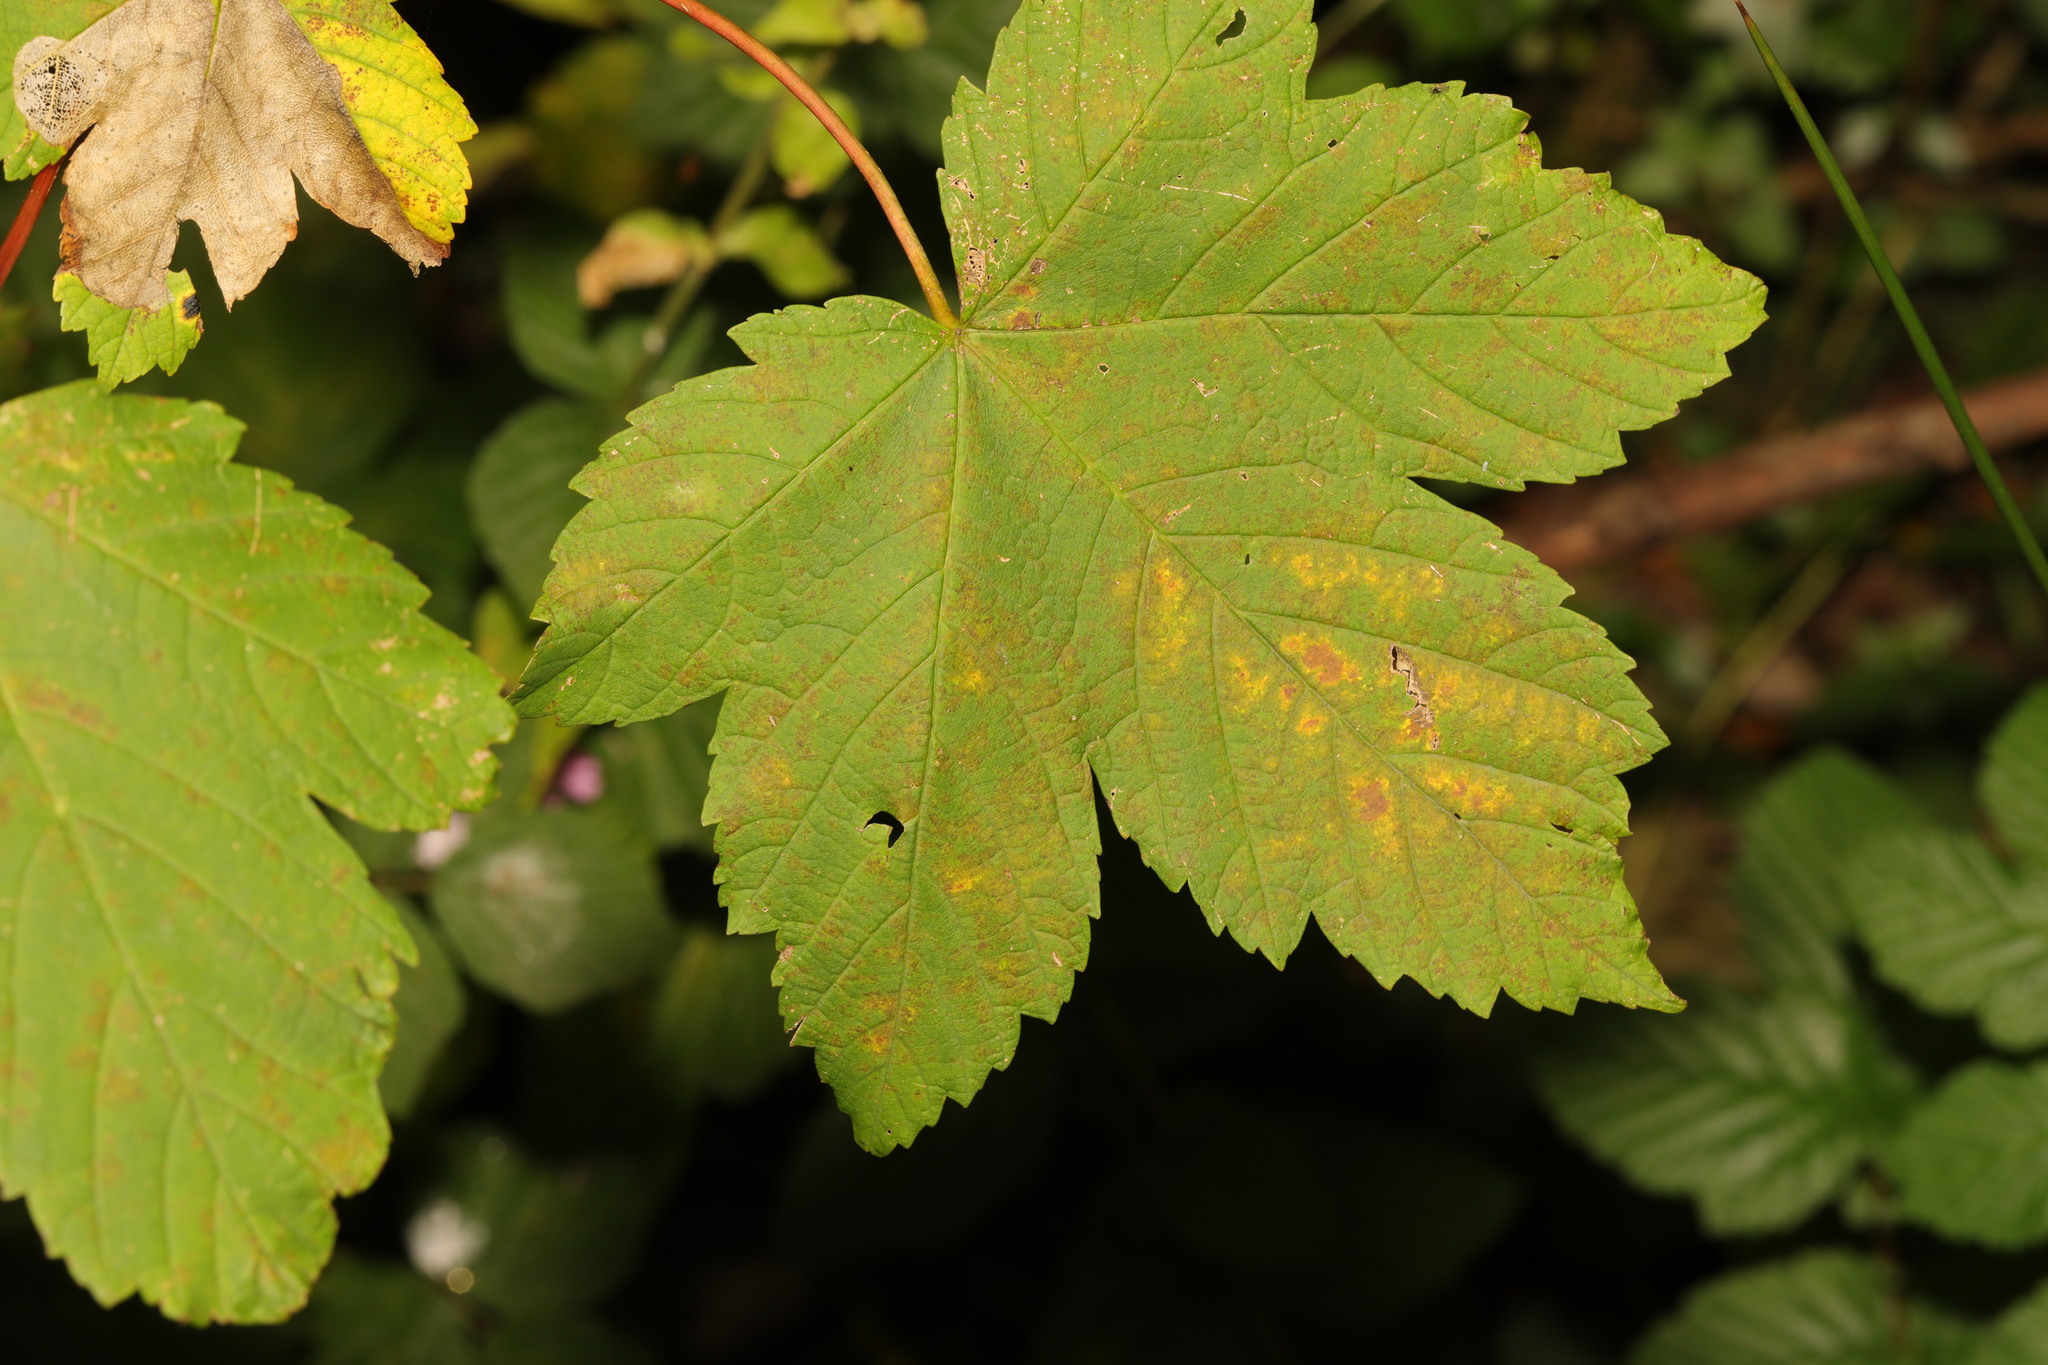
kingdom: Plantae
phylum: Tracheophyta
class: Magnoliopsida
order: Sapindales
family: Sapindaceae
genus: Acer
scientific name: Acer pseudoplatanus
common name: Sycamore
